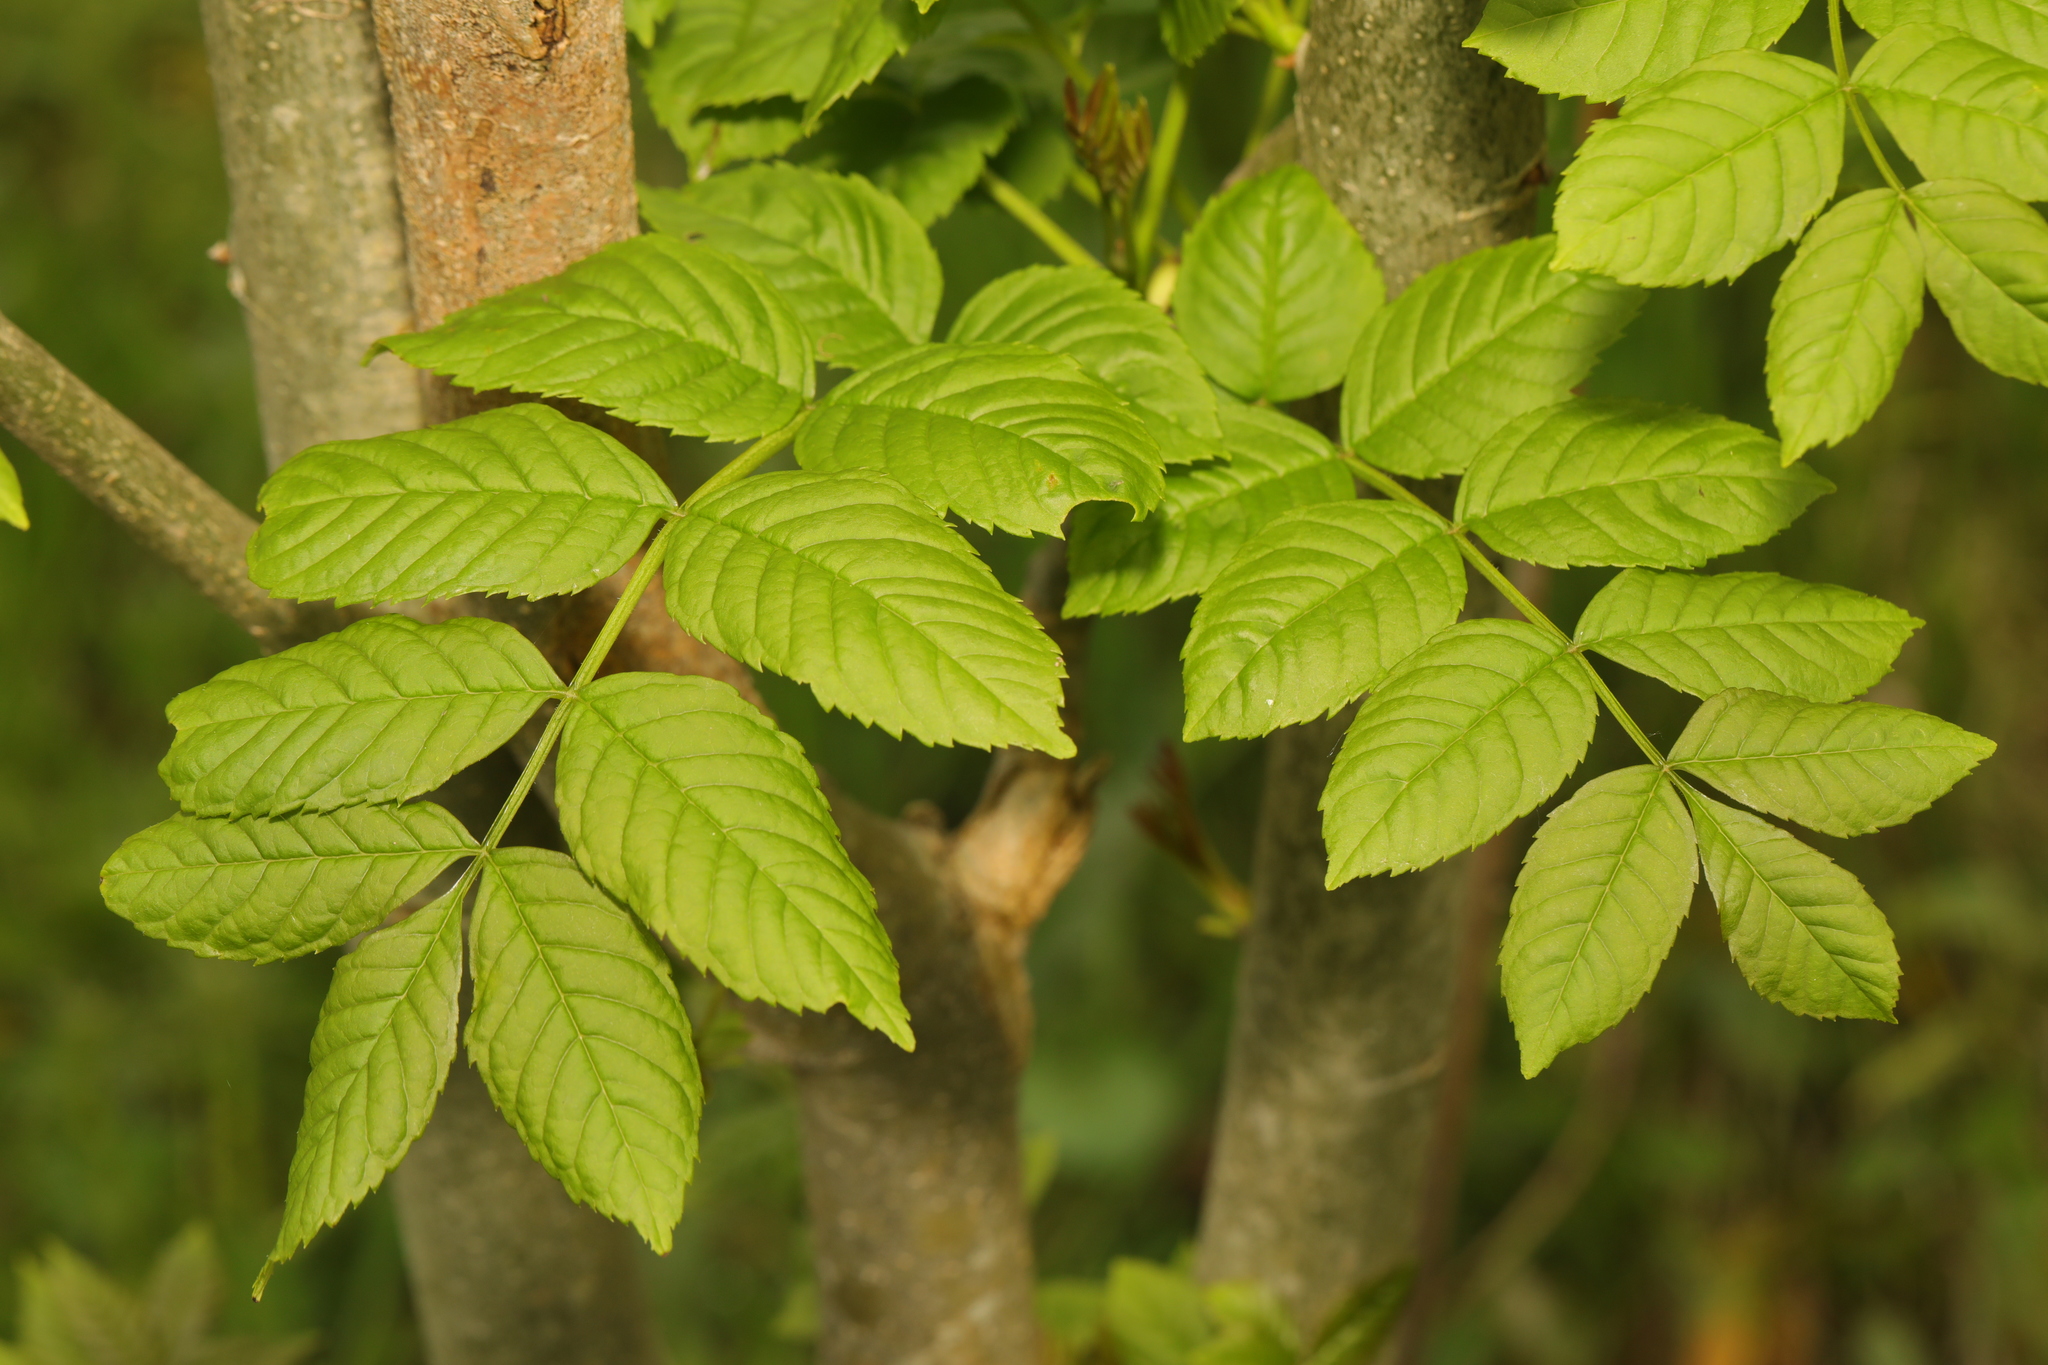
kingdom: Plantae
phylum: Tracheophyta
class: Magnoliopsida
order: Lamiales
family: Oleaceae
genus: Fraxinus
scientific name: Fraxinus excelsior
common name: European ash
